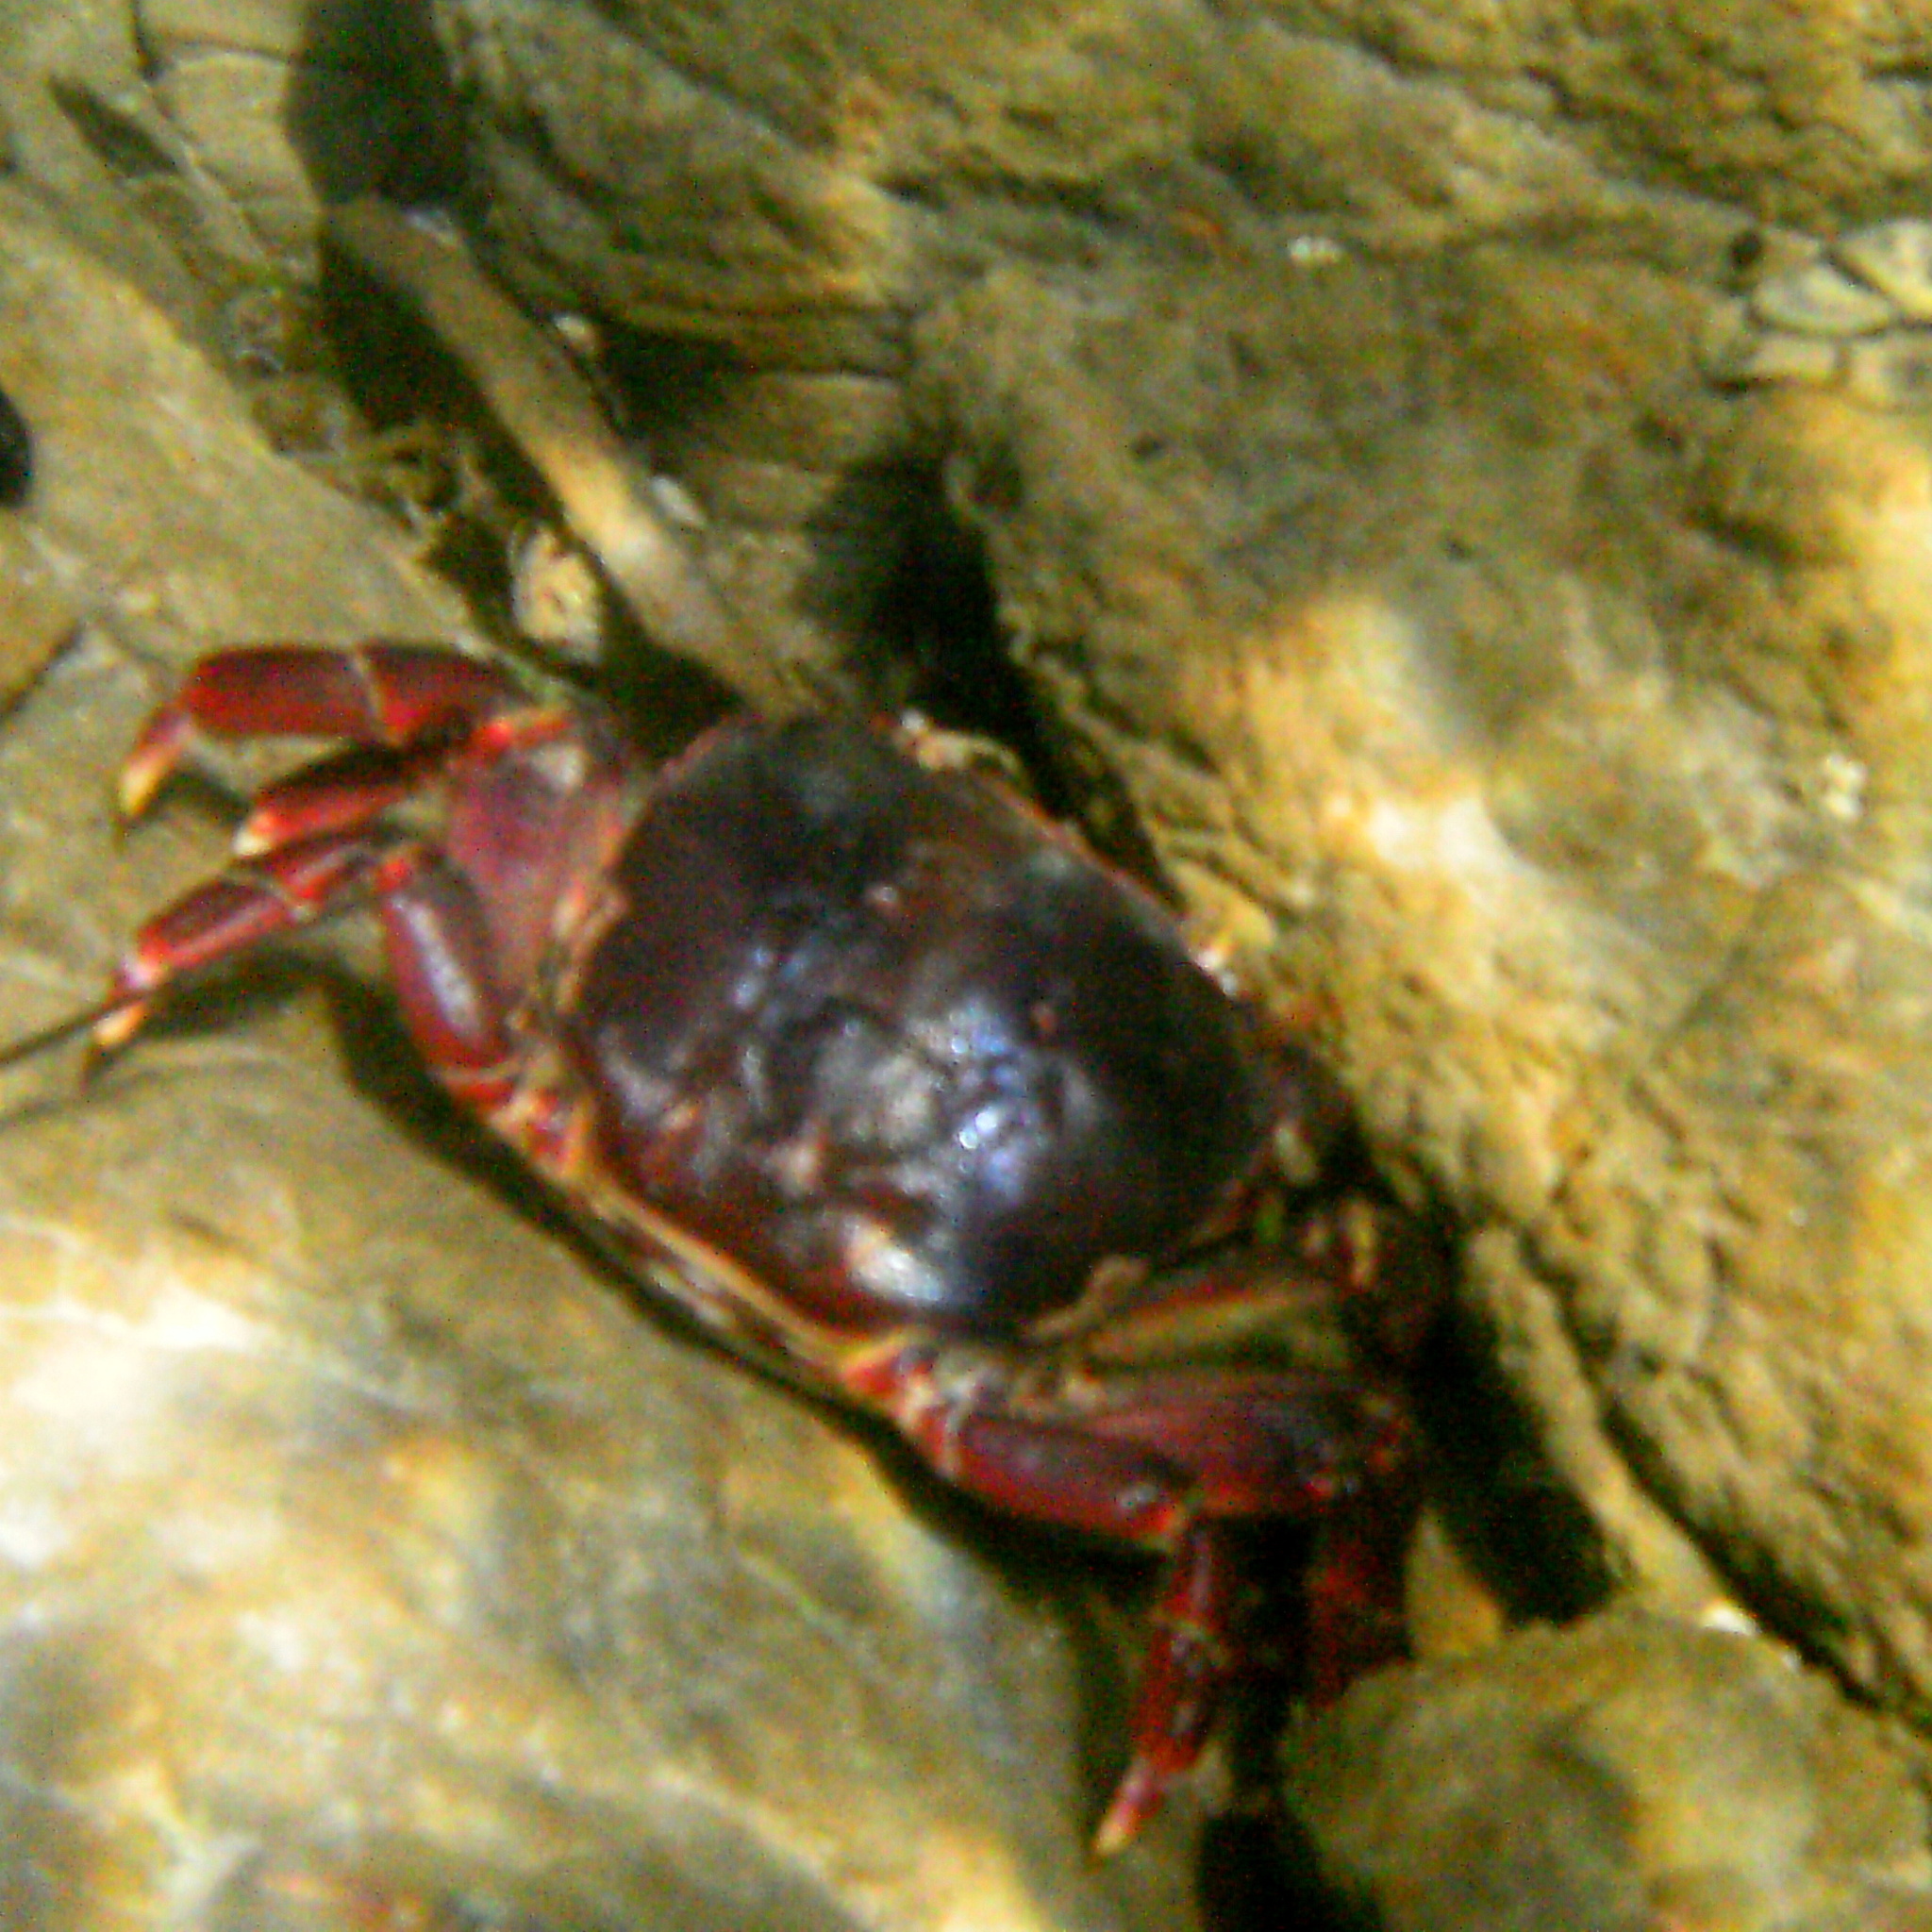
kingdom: Animalia
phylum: Arthropoda
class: Malacostraca
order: Decapoda
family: Varunidae
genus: Hemigrapsus
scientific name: Hemigrapsus sexdentatus
